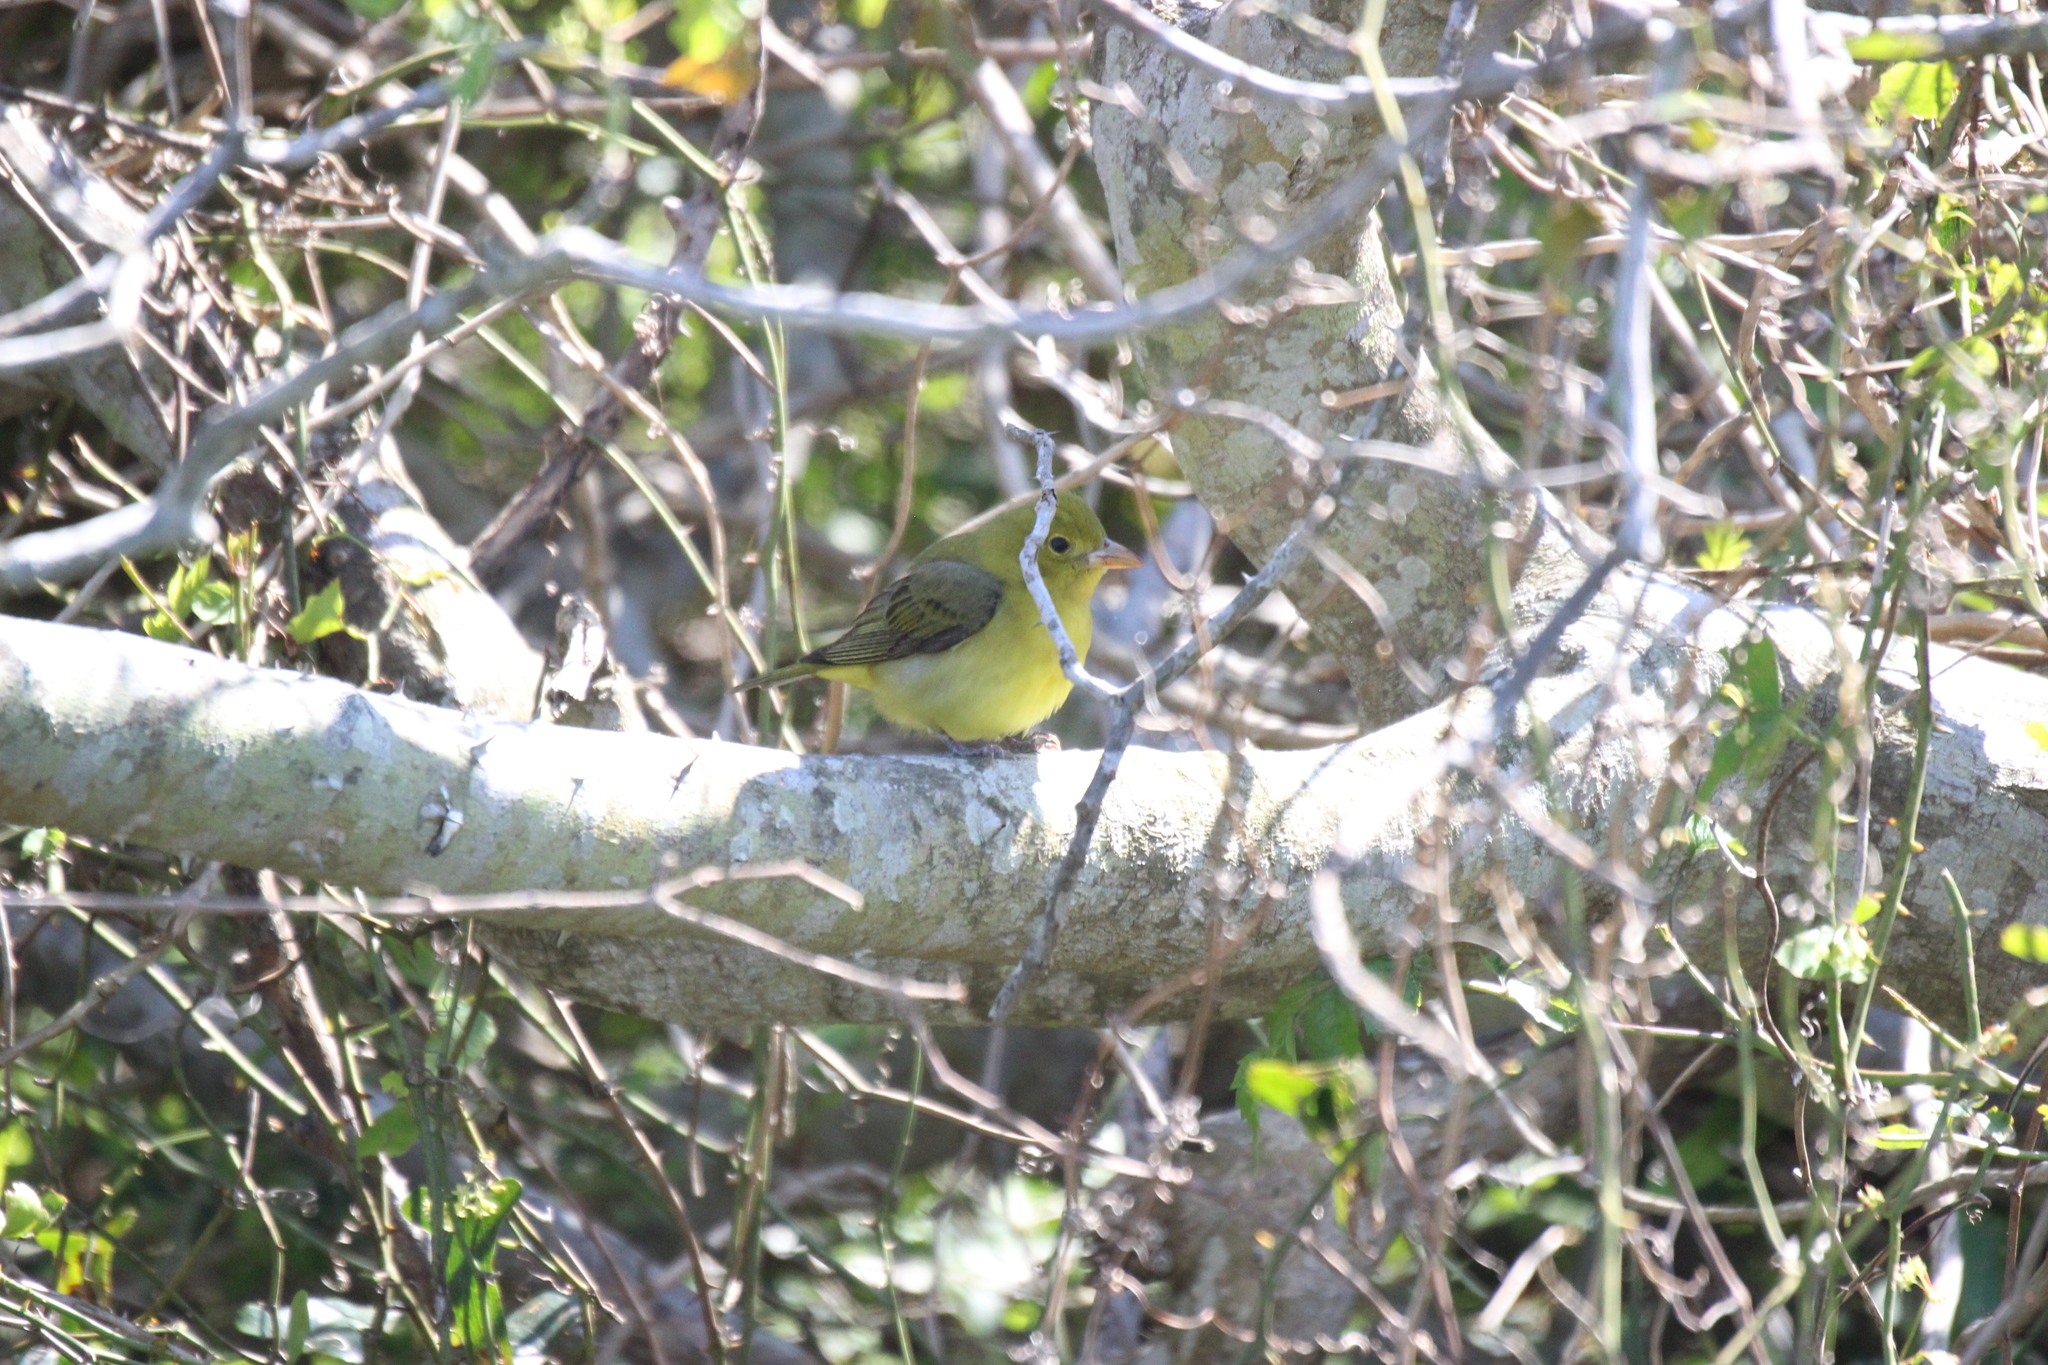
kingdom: Animalia
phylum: Chordata
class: Aves
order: Passeriformes
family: Cardinalidae
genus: Piranga
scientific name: Piranga olivacea
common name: Scarlet tanager
